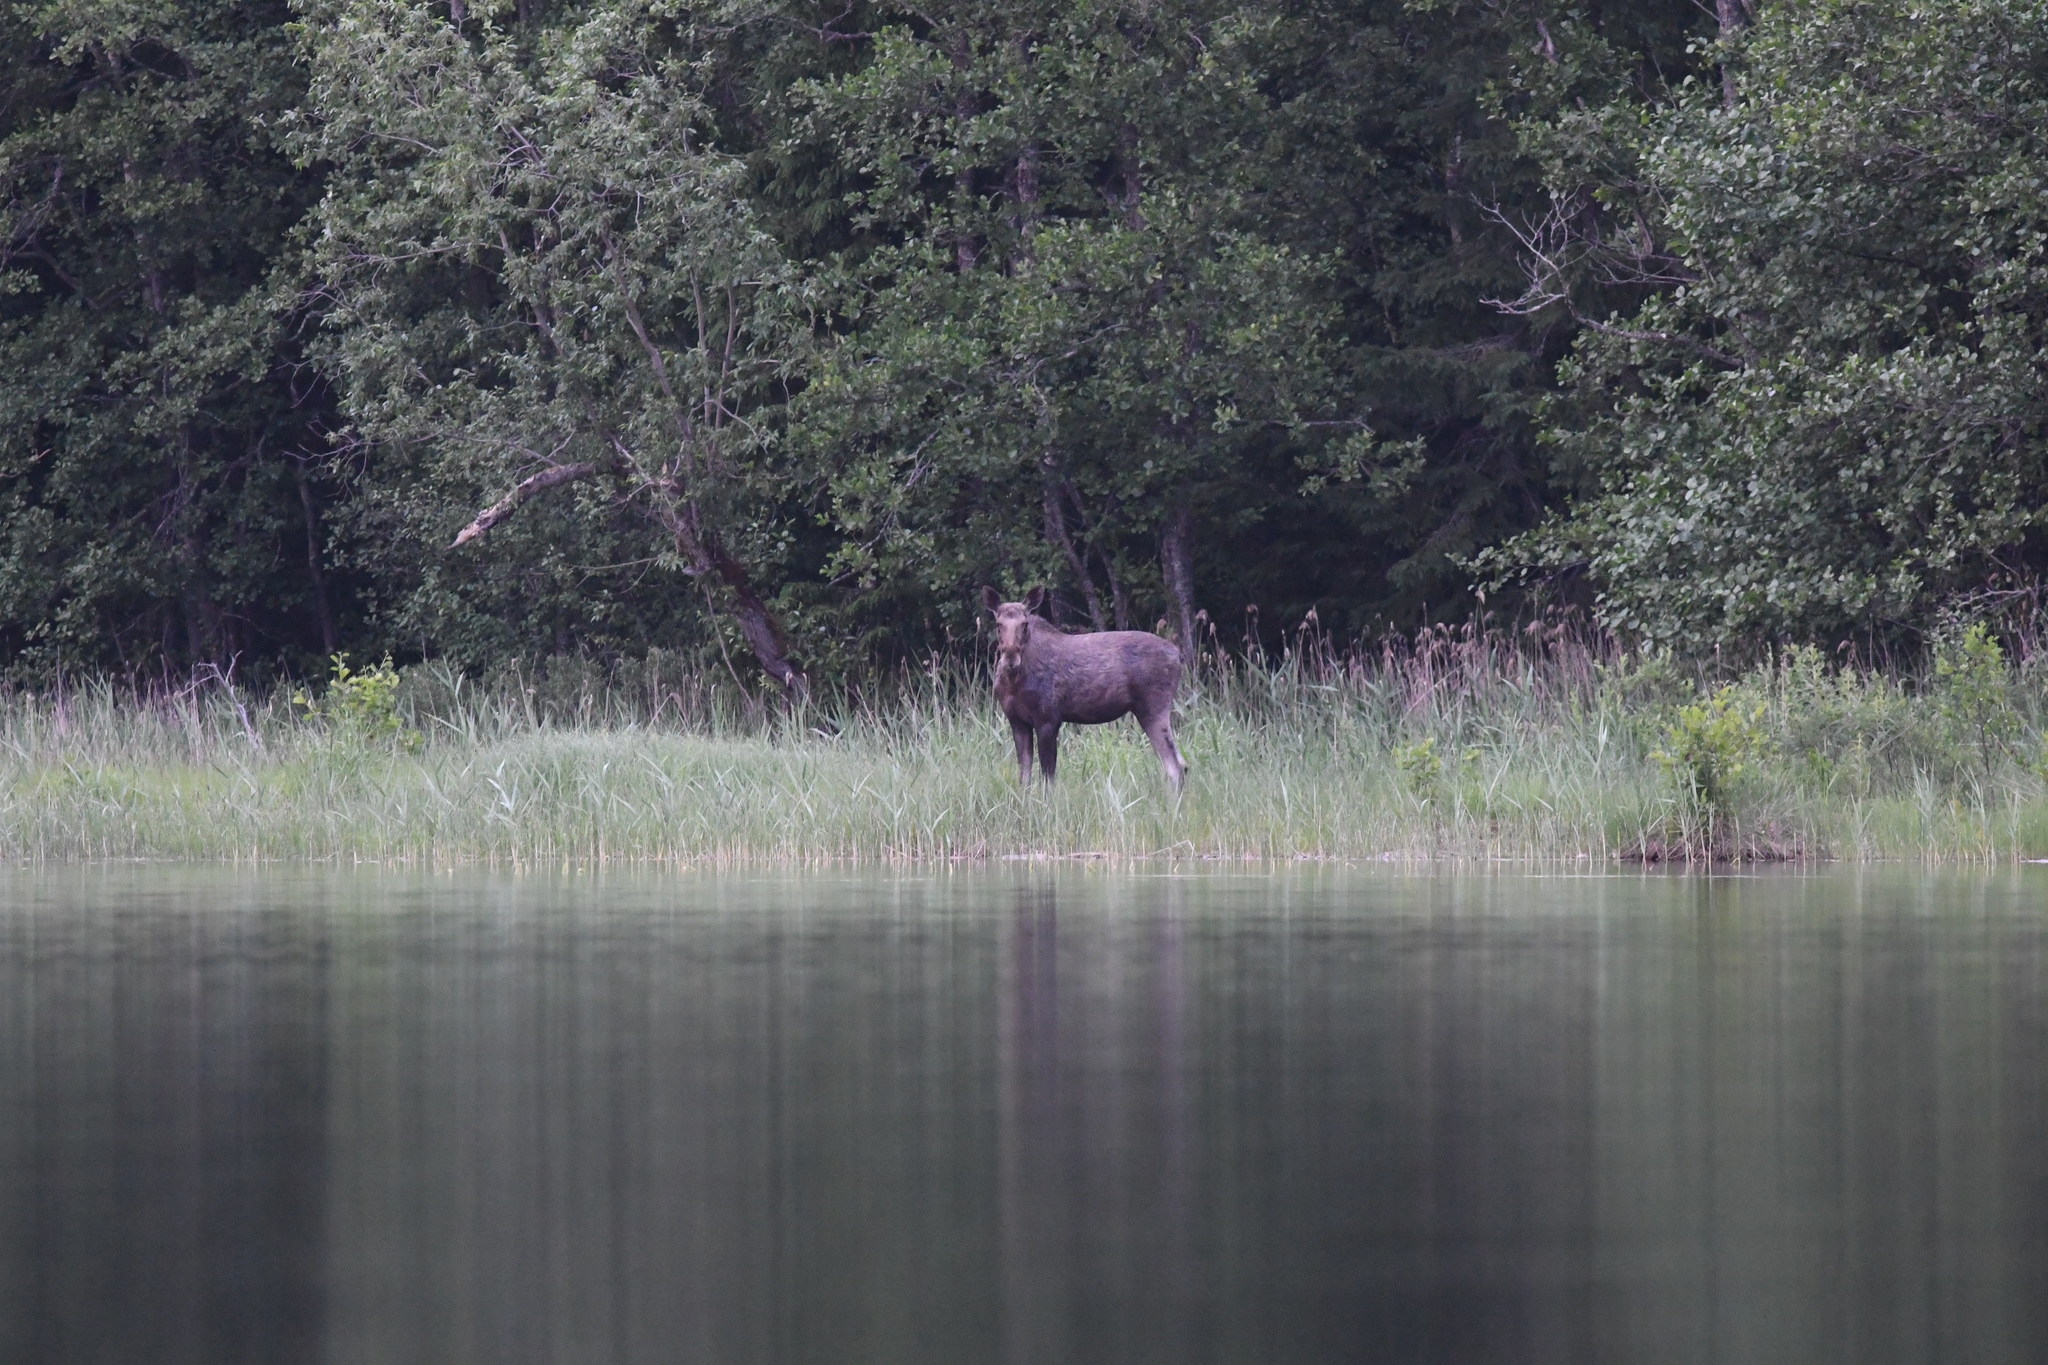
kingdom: Animalia
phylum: Chordata
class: Mammalia
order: Artiodactyla
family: Cervidae
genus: Alces
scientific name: Alces alces
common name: Moose
